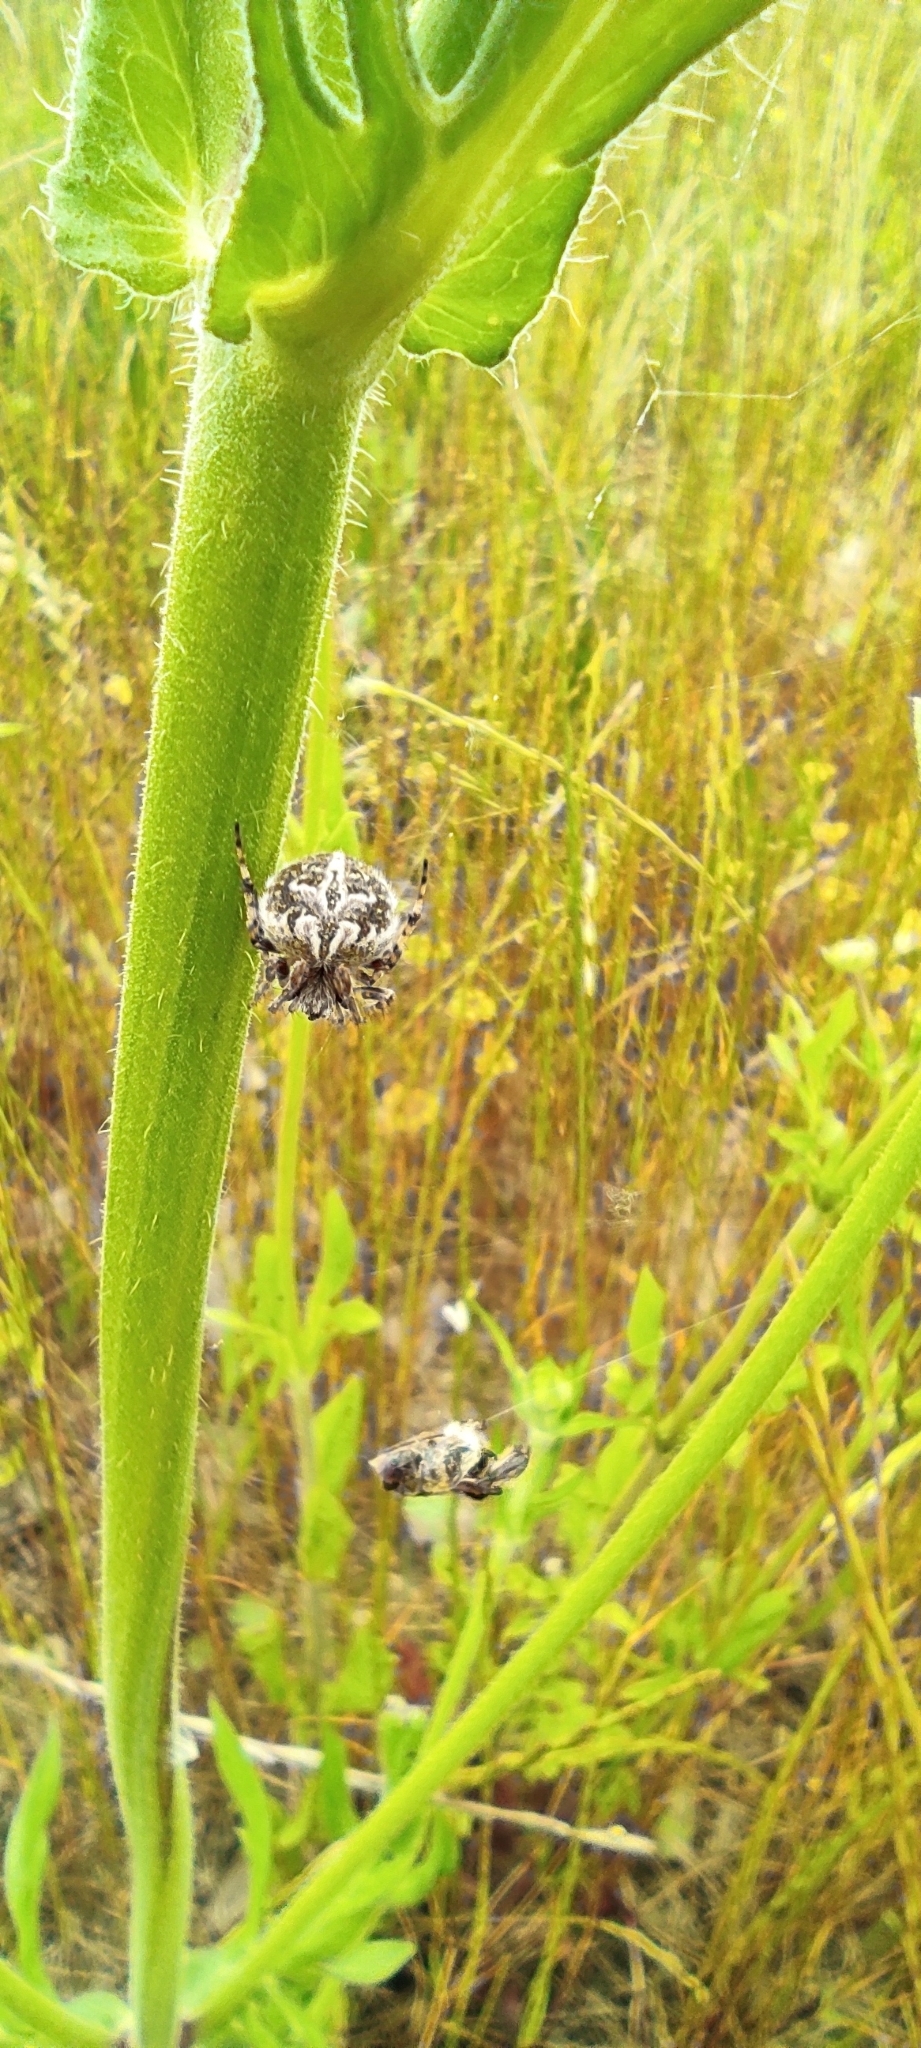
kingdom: Animalia
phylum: Arthropoda
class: Arachnida
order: Araneae
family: Araneidae
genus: Agalenatea
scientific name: Agalenatea redii
